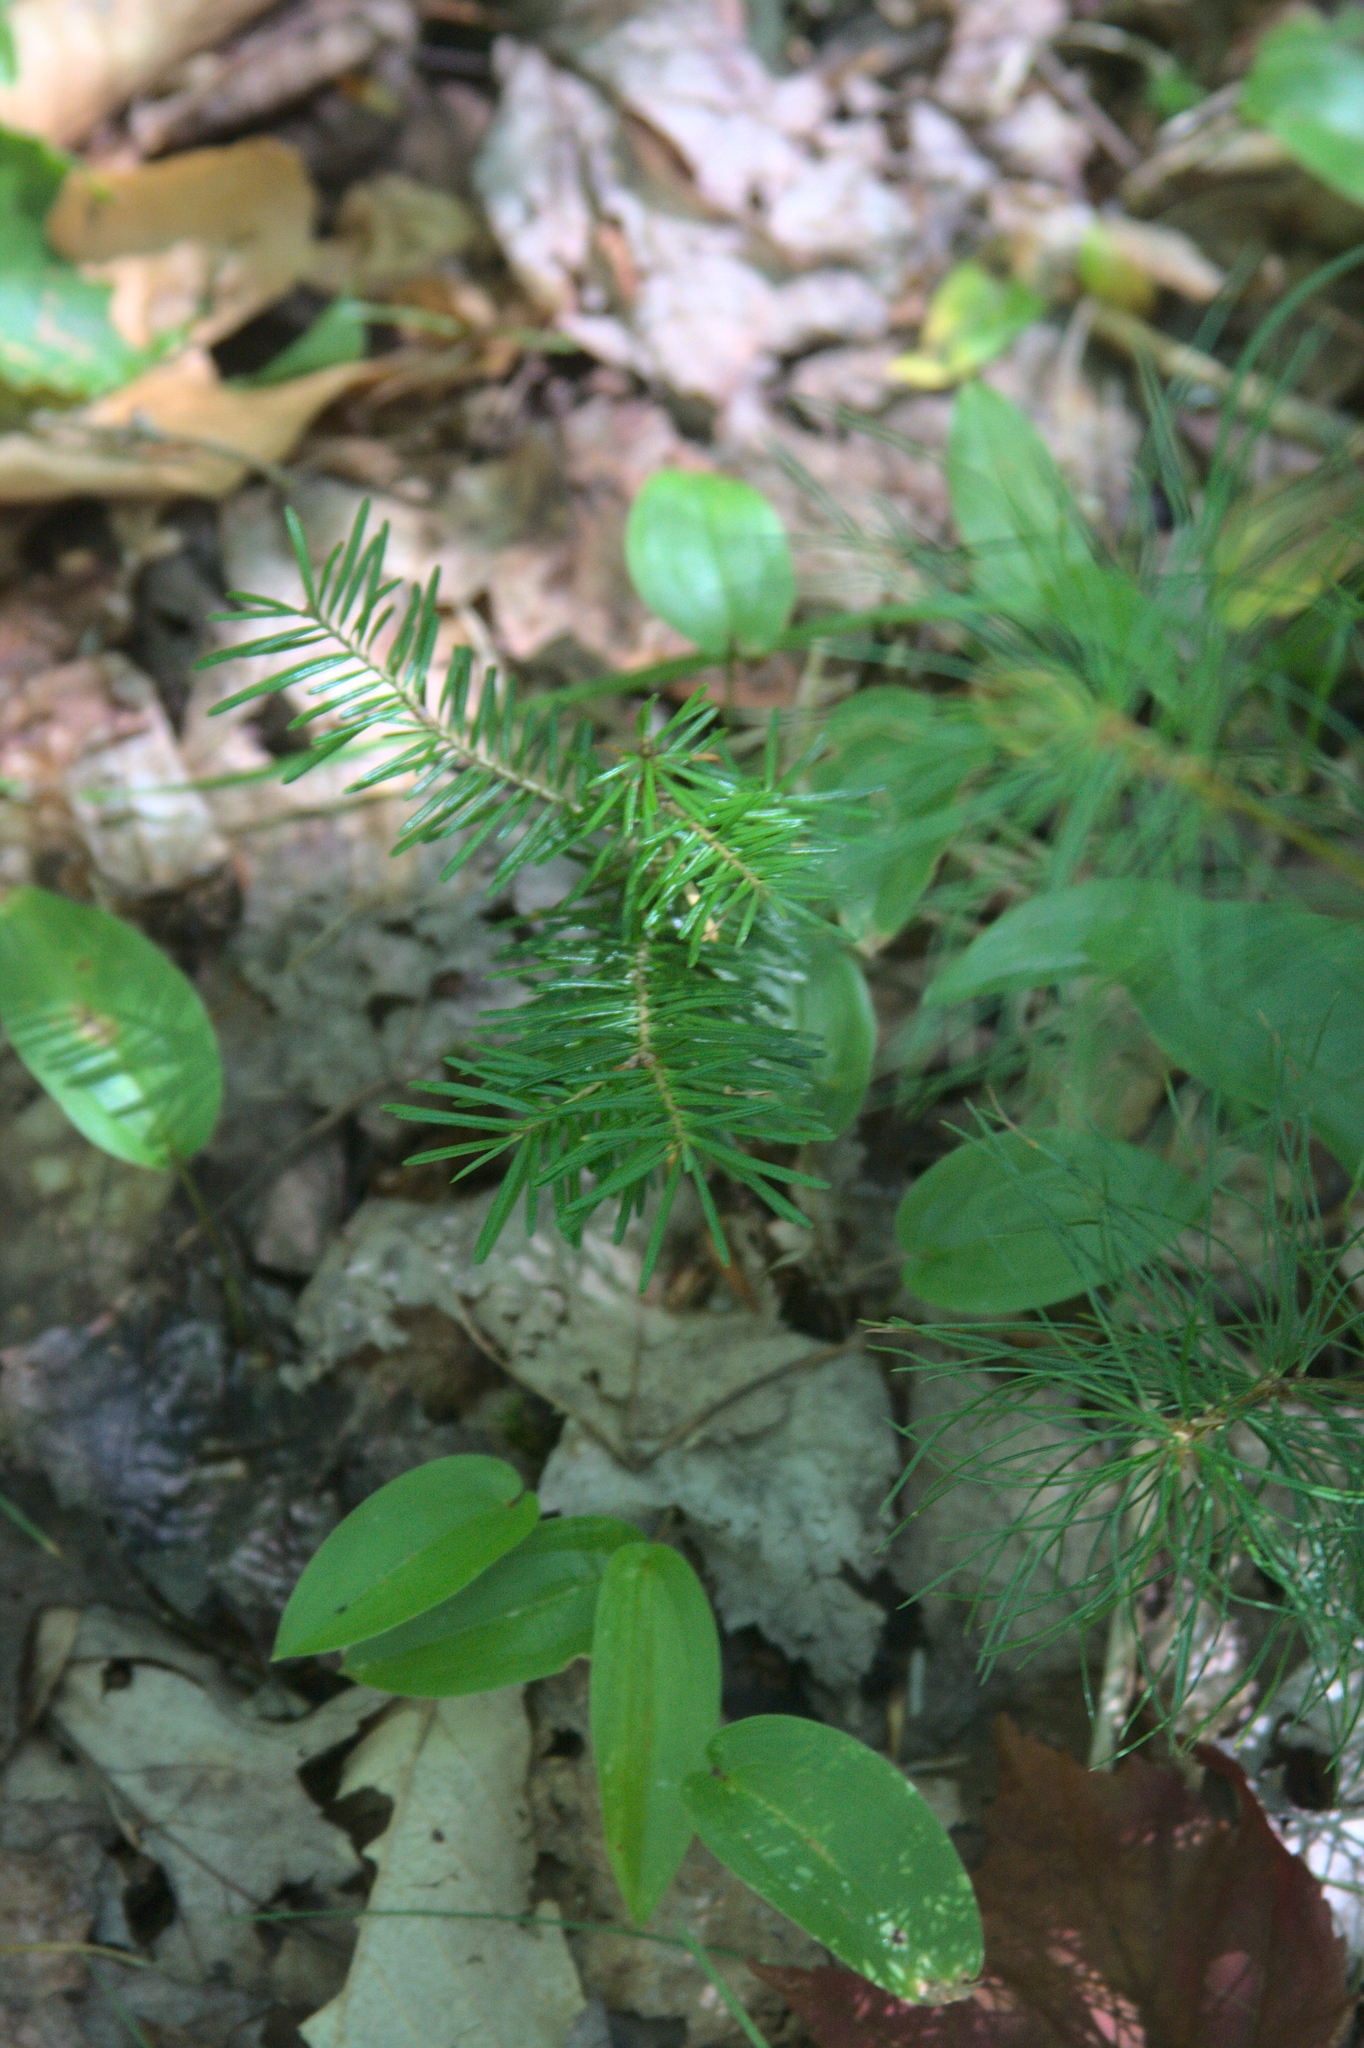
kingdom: Plantae
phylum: Tracheophyta
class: Pinopsida
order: Pinales
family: Pinaceae
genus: Abies
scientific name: Abies balsamea
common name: Balsam fir
